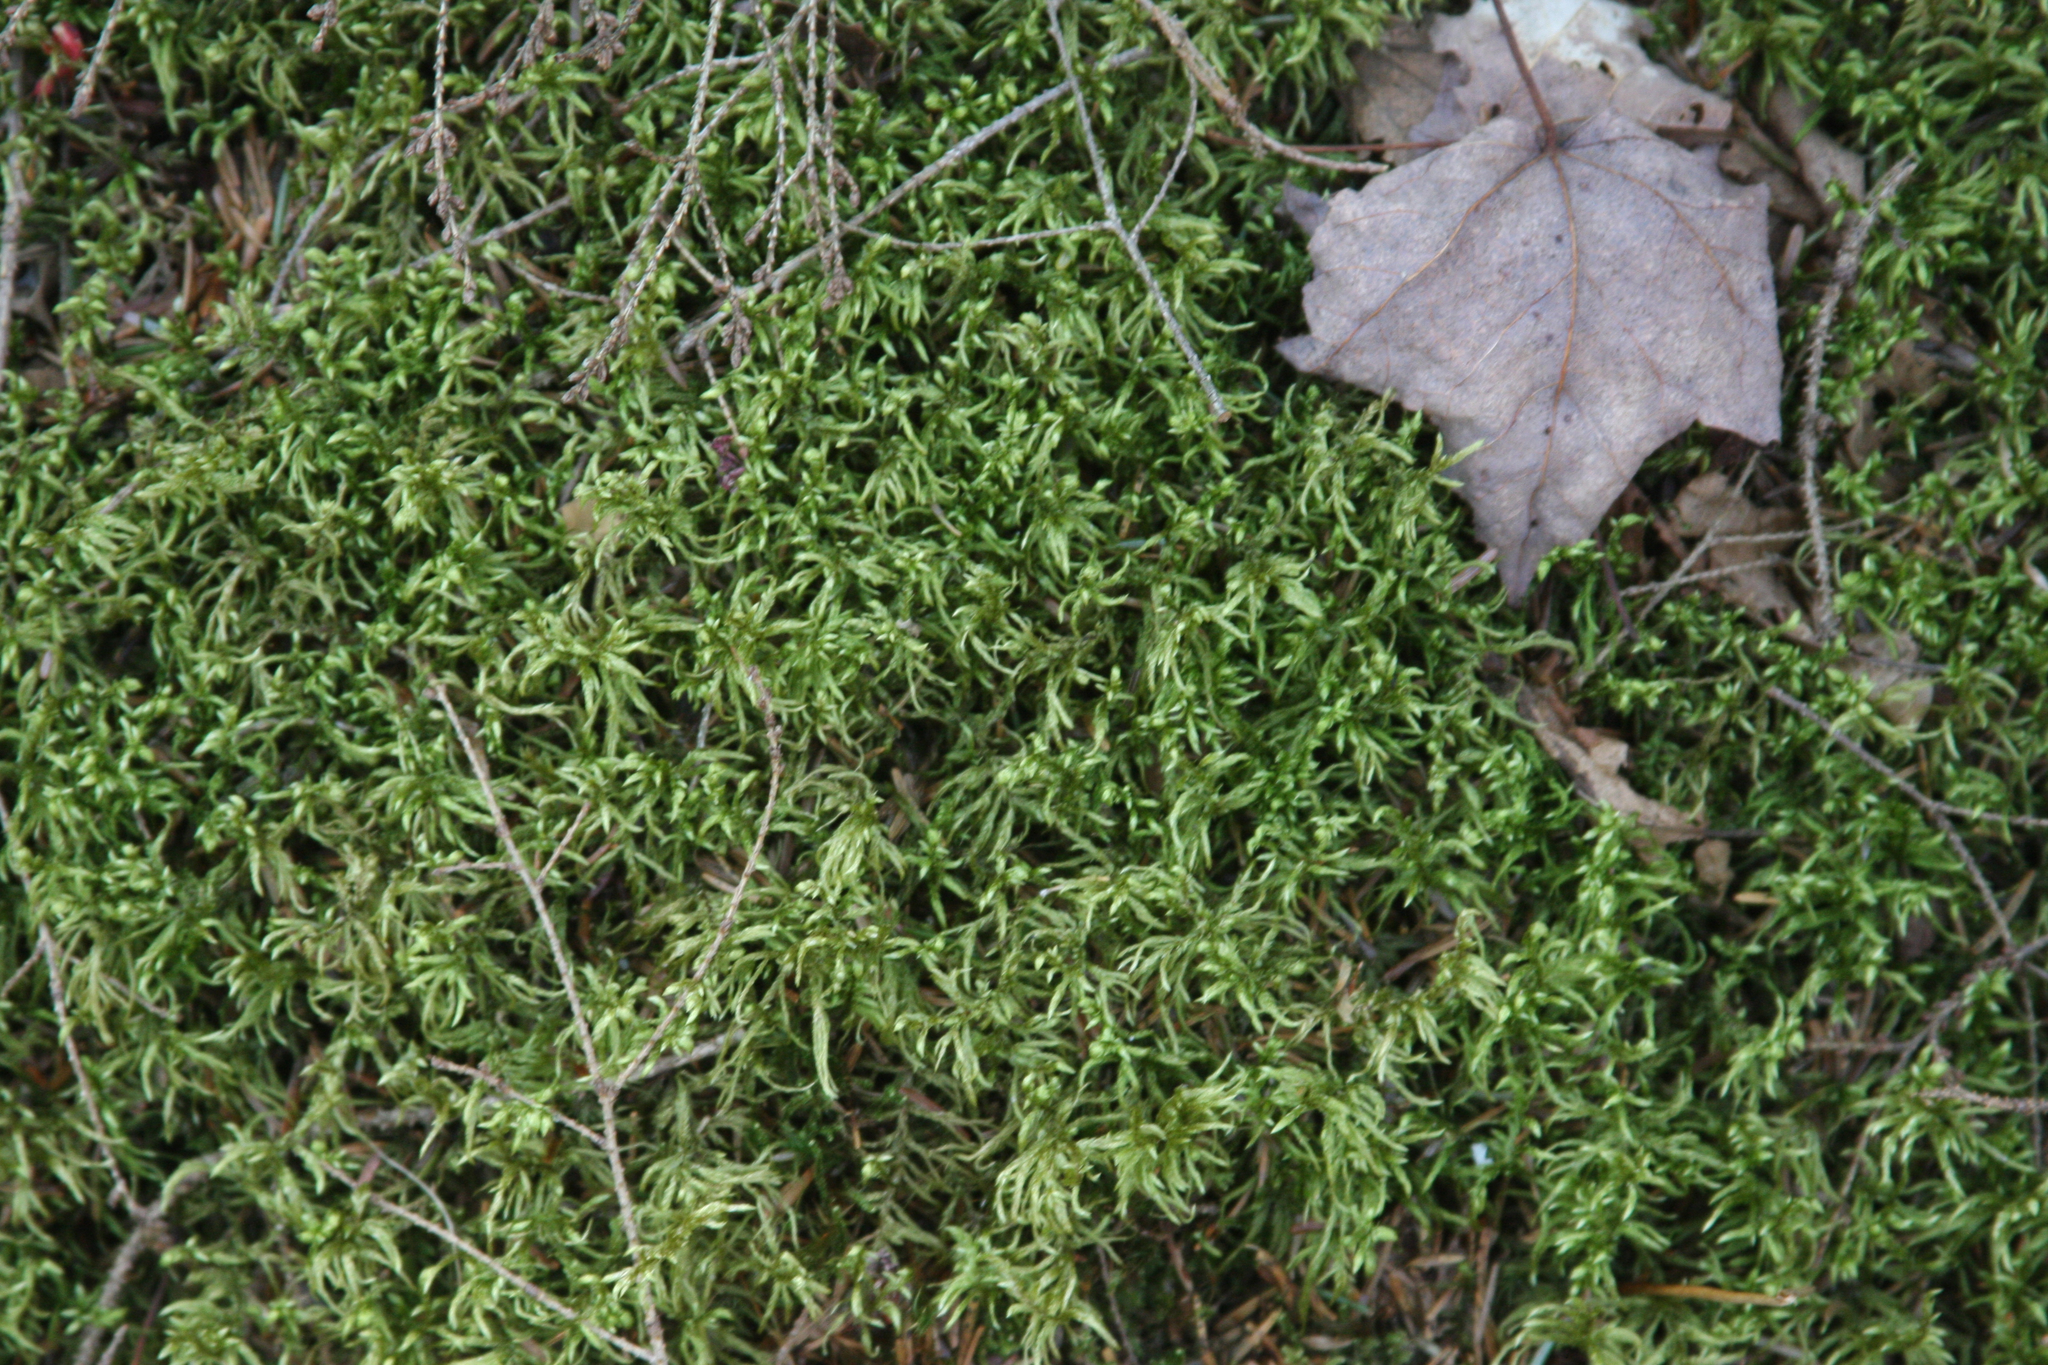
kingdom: Plantae
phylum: Tracheophyta
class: Magnoliopsida
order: Sapindales
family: Sapindaceae
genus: Acer
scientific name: Acer rubrum
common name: Red maple
